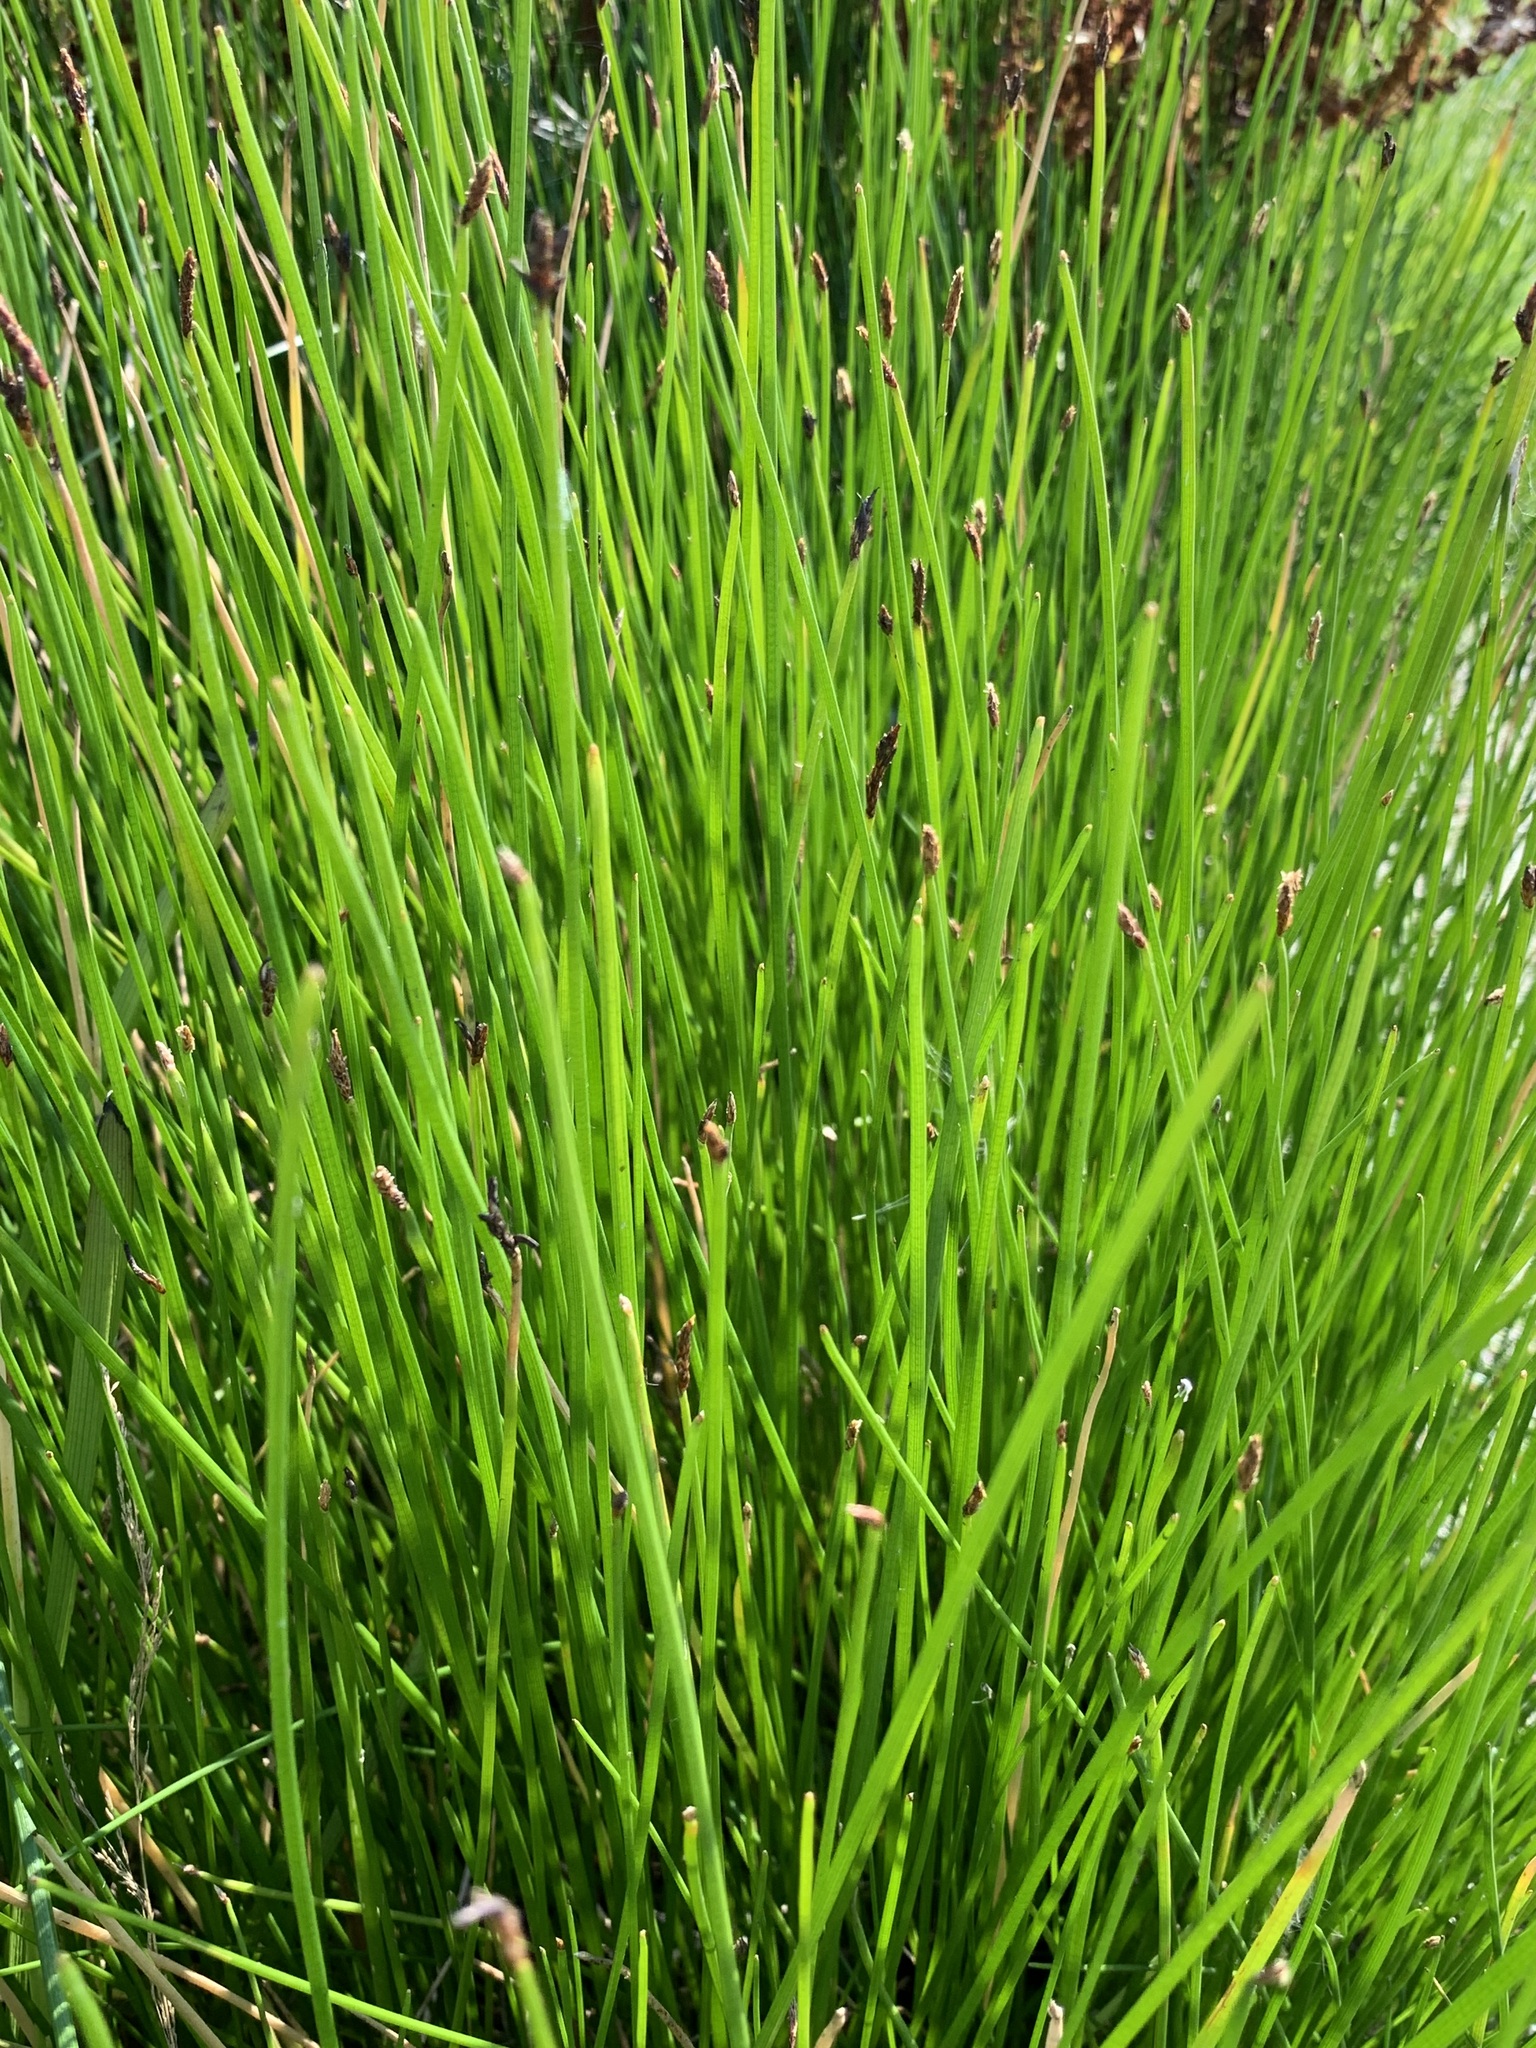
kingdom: Plantae
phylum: Tracheophyta
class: Liliopsida
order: Poales
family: Cyperaceae
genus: Eleocharis
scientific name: Eleocharis palustris
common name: Common spike-rush
